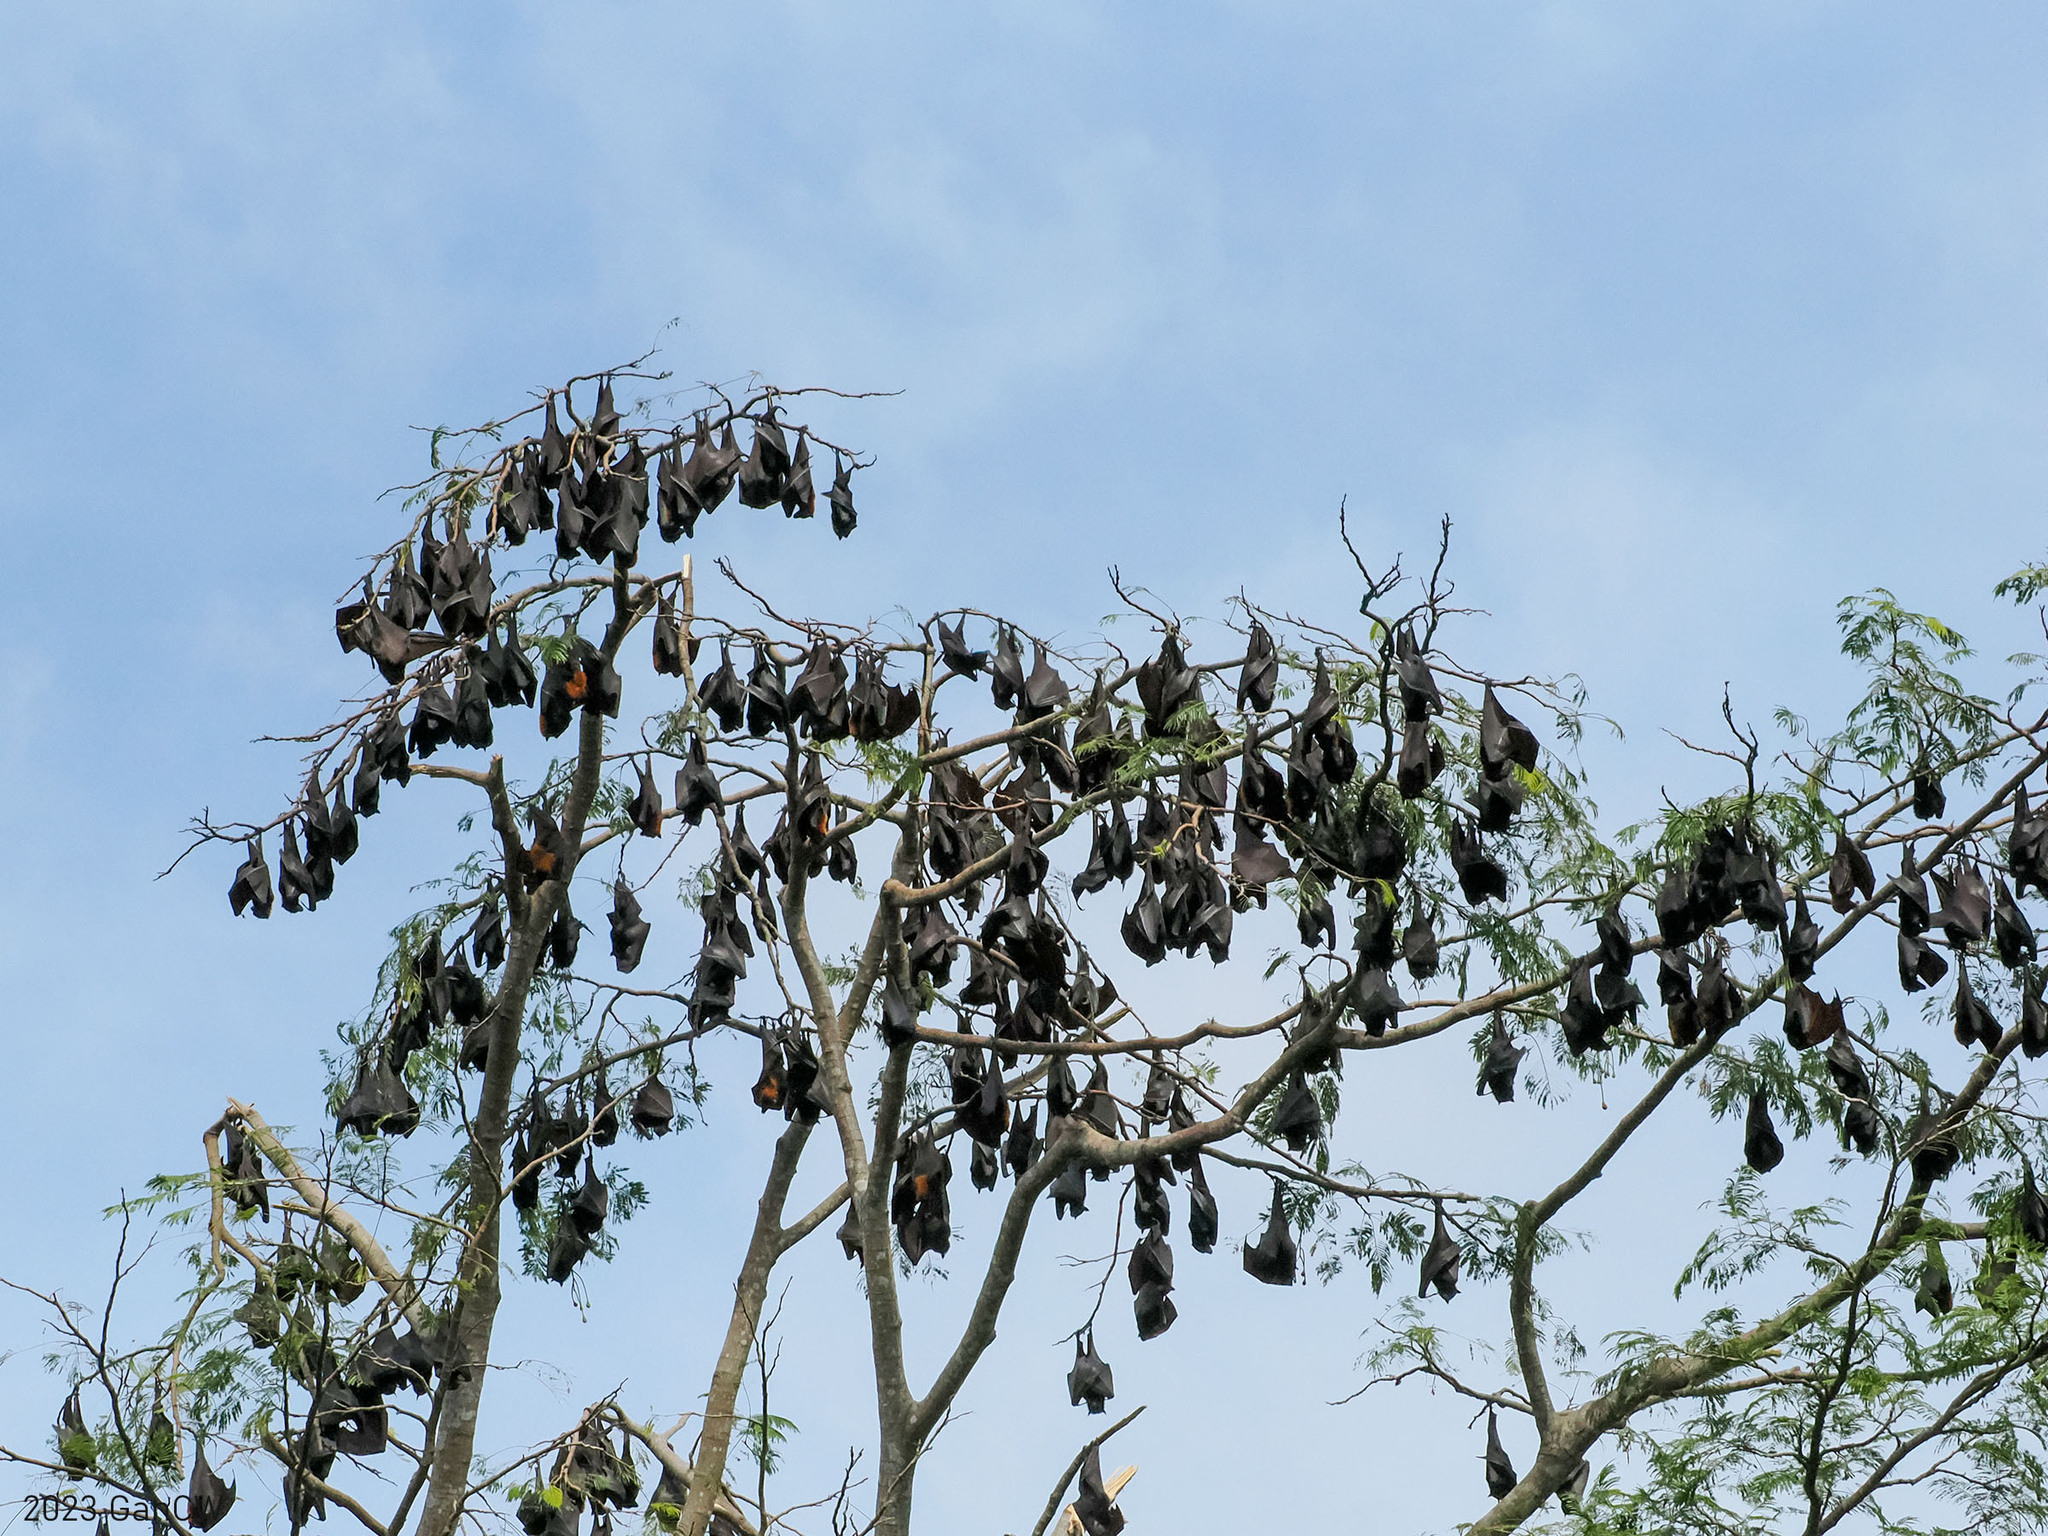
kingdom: Animalia
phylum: Chordata
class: Mammalia
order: Chiroptera
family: Pteropodidae
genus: Pteropus
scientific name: Pteropus vampyrus
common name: Large flying fox
